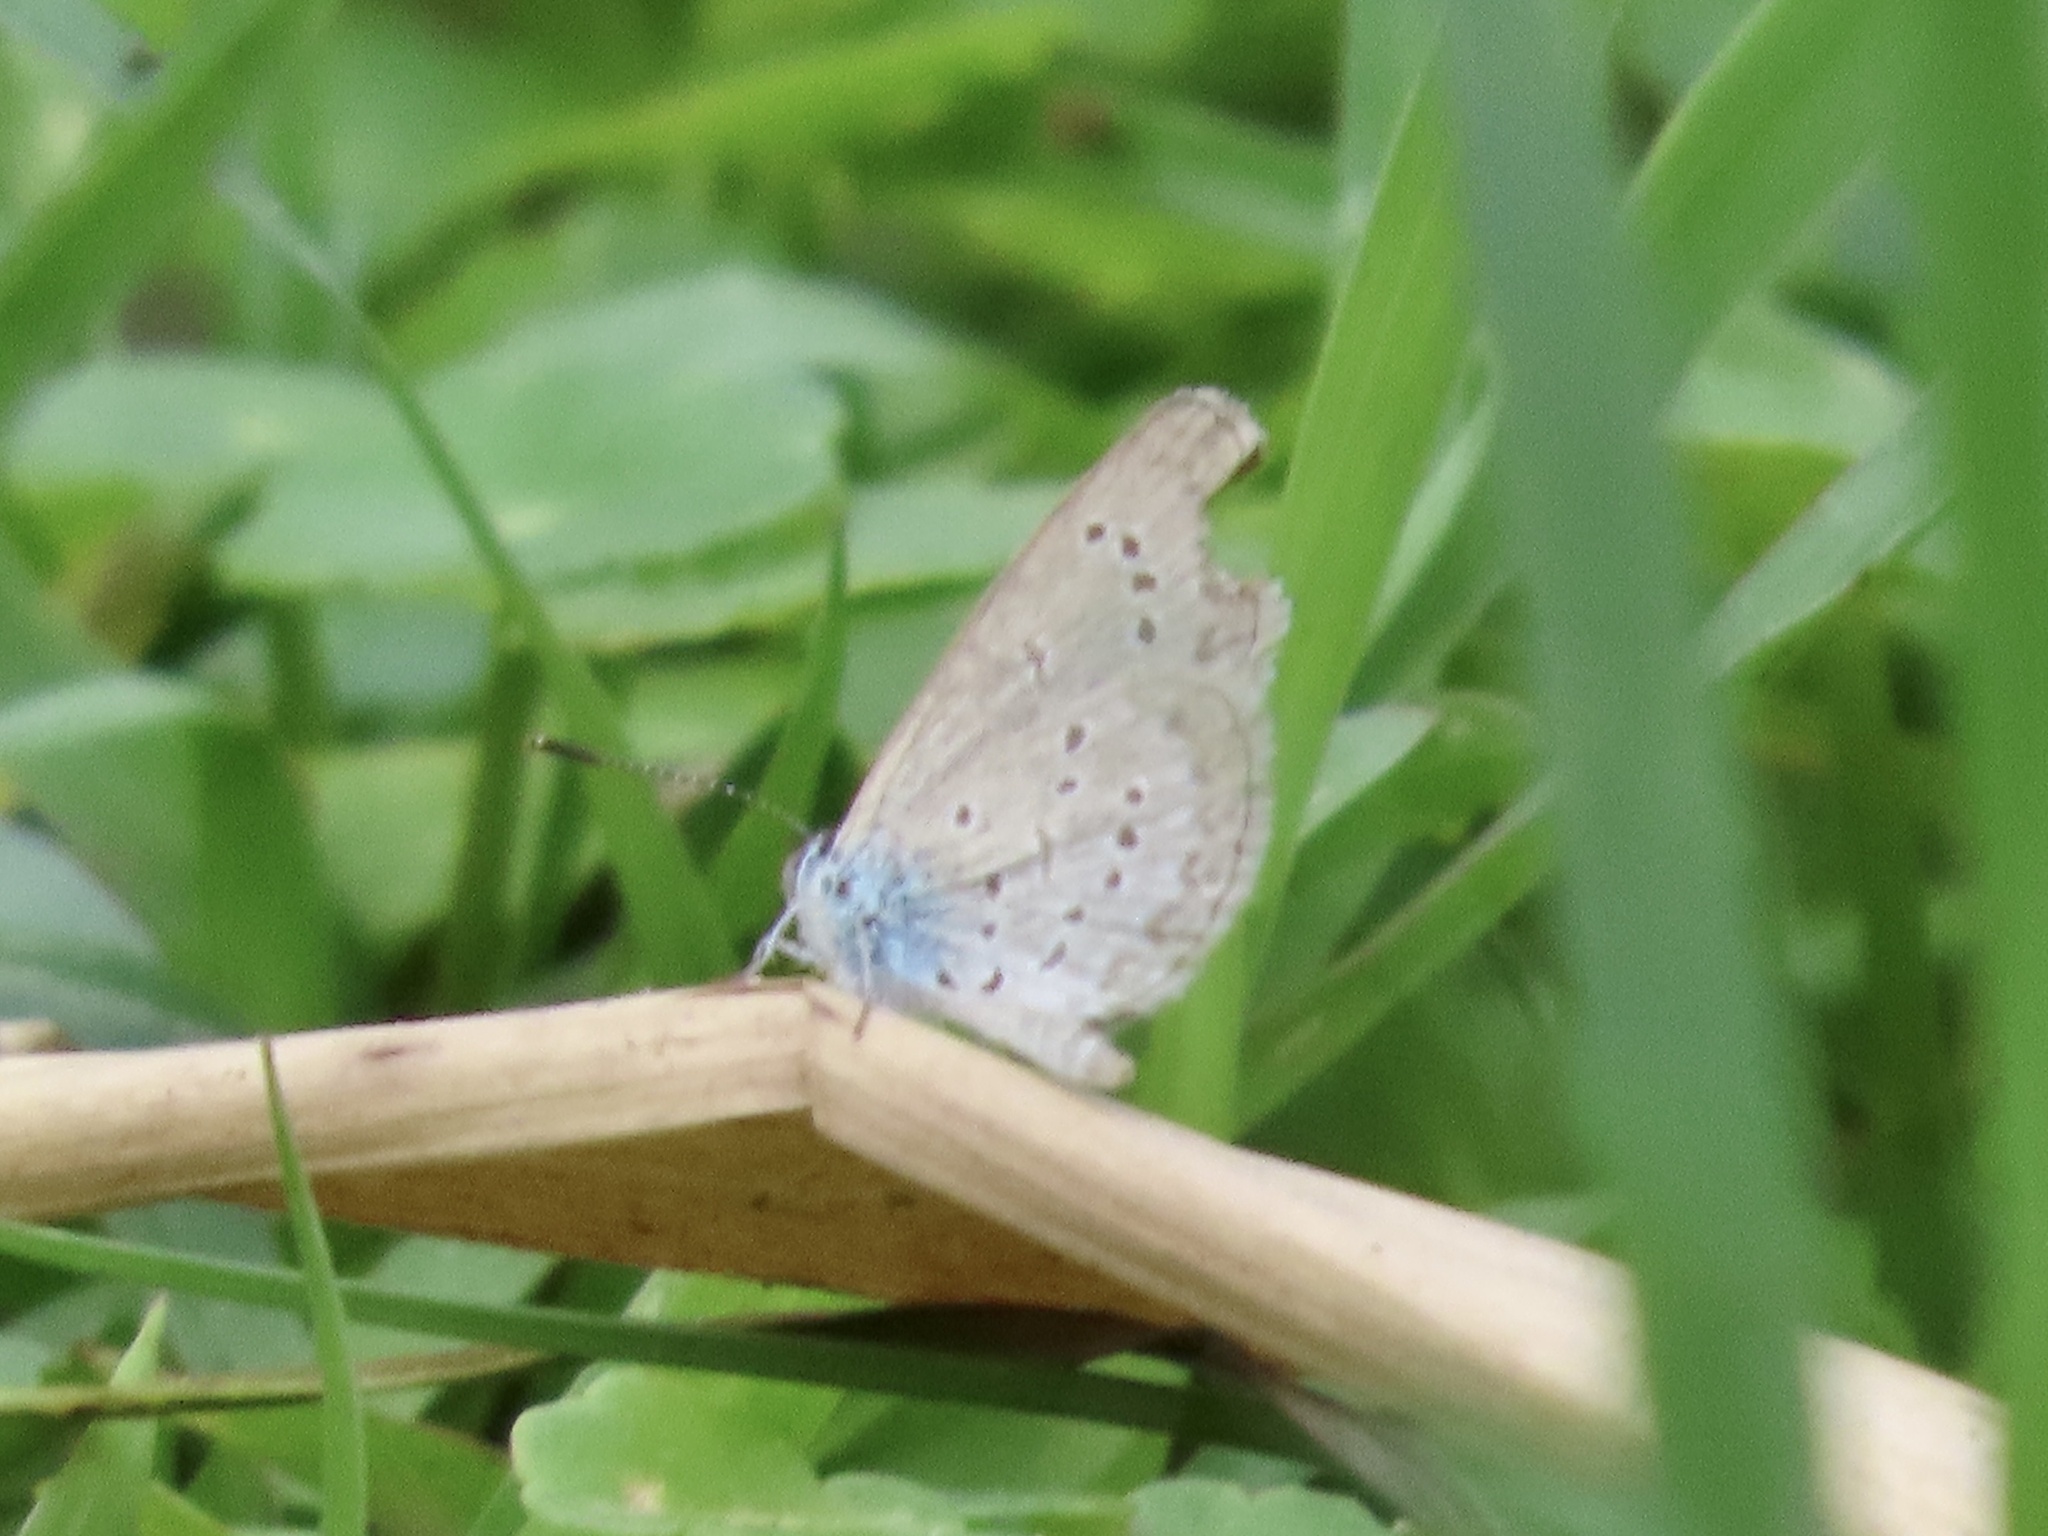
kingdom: Animalia
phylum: Arthropoda
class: Insecta
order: Lepidoptera
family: Lycaenidae
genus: Zizina
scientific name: Zizina otis
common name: Lesser grass blue
